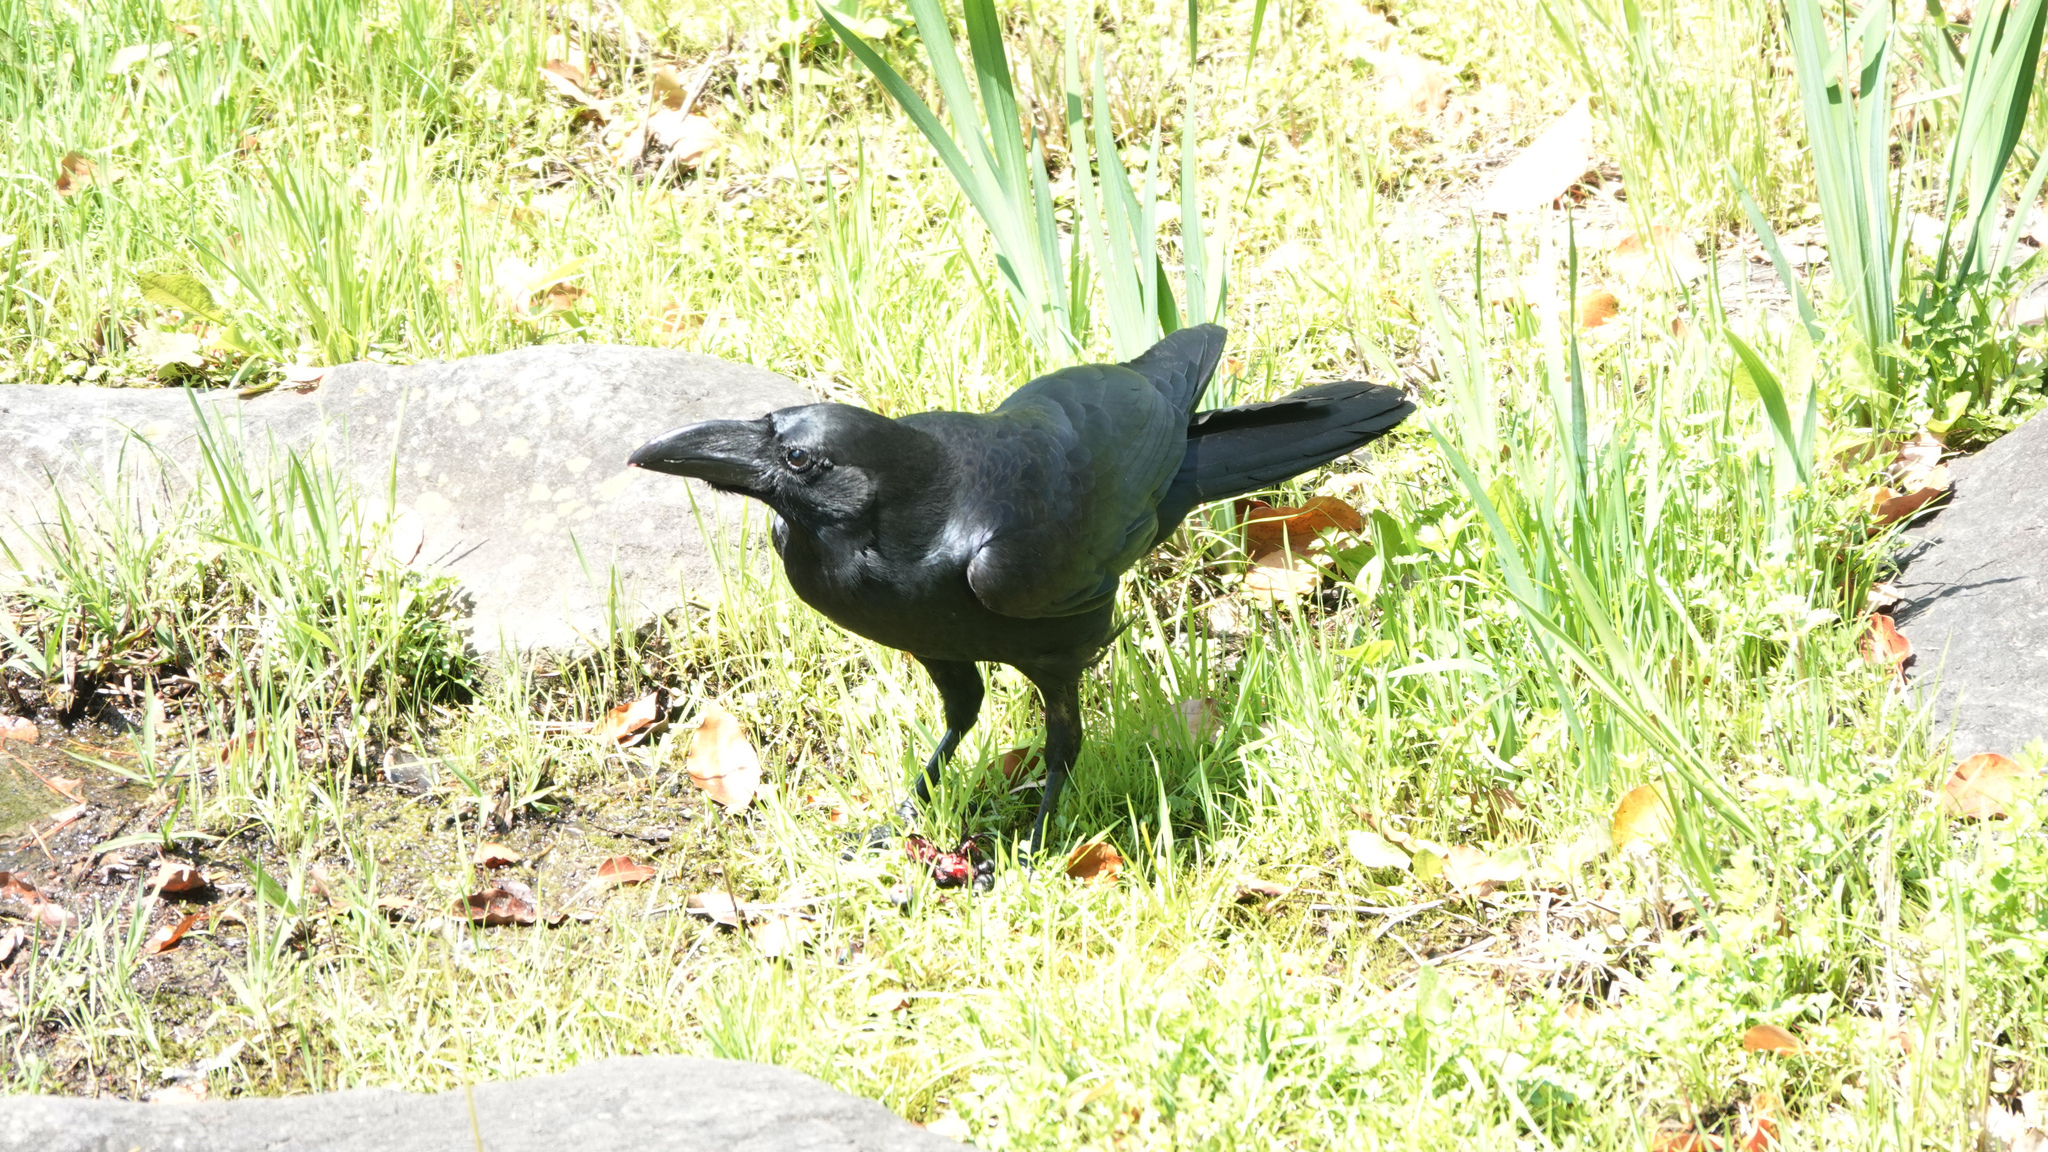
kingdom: Animalia
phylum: Chordata
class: Aves
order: Passeriformes
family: Corvidae
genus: Corvus
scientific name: Corvus macrorhynchos
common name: Large-billed crow
